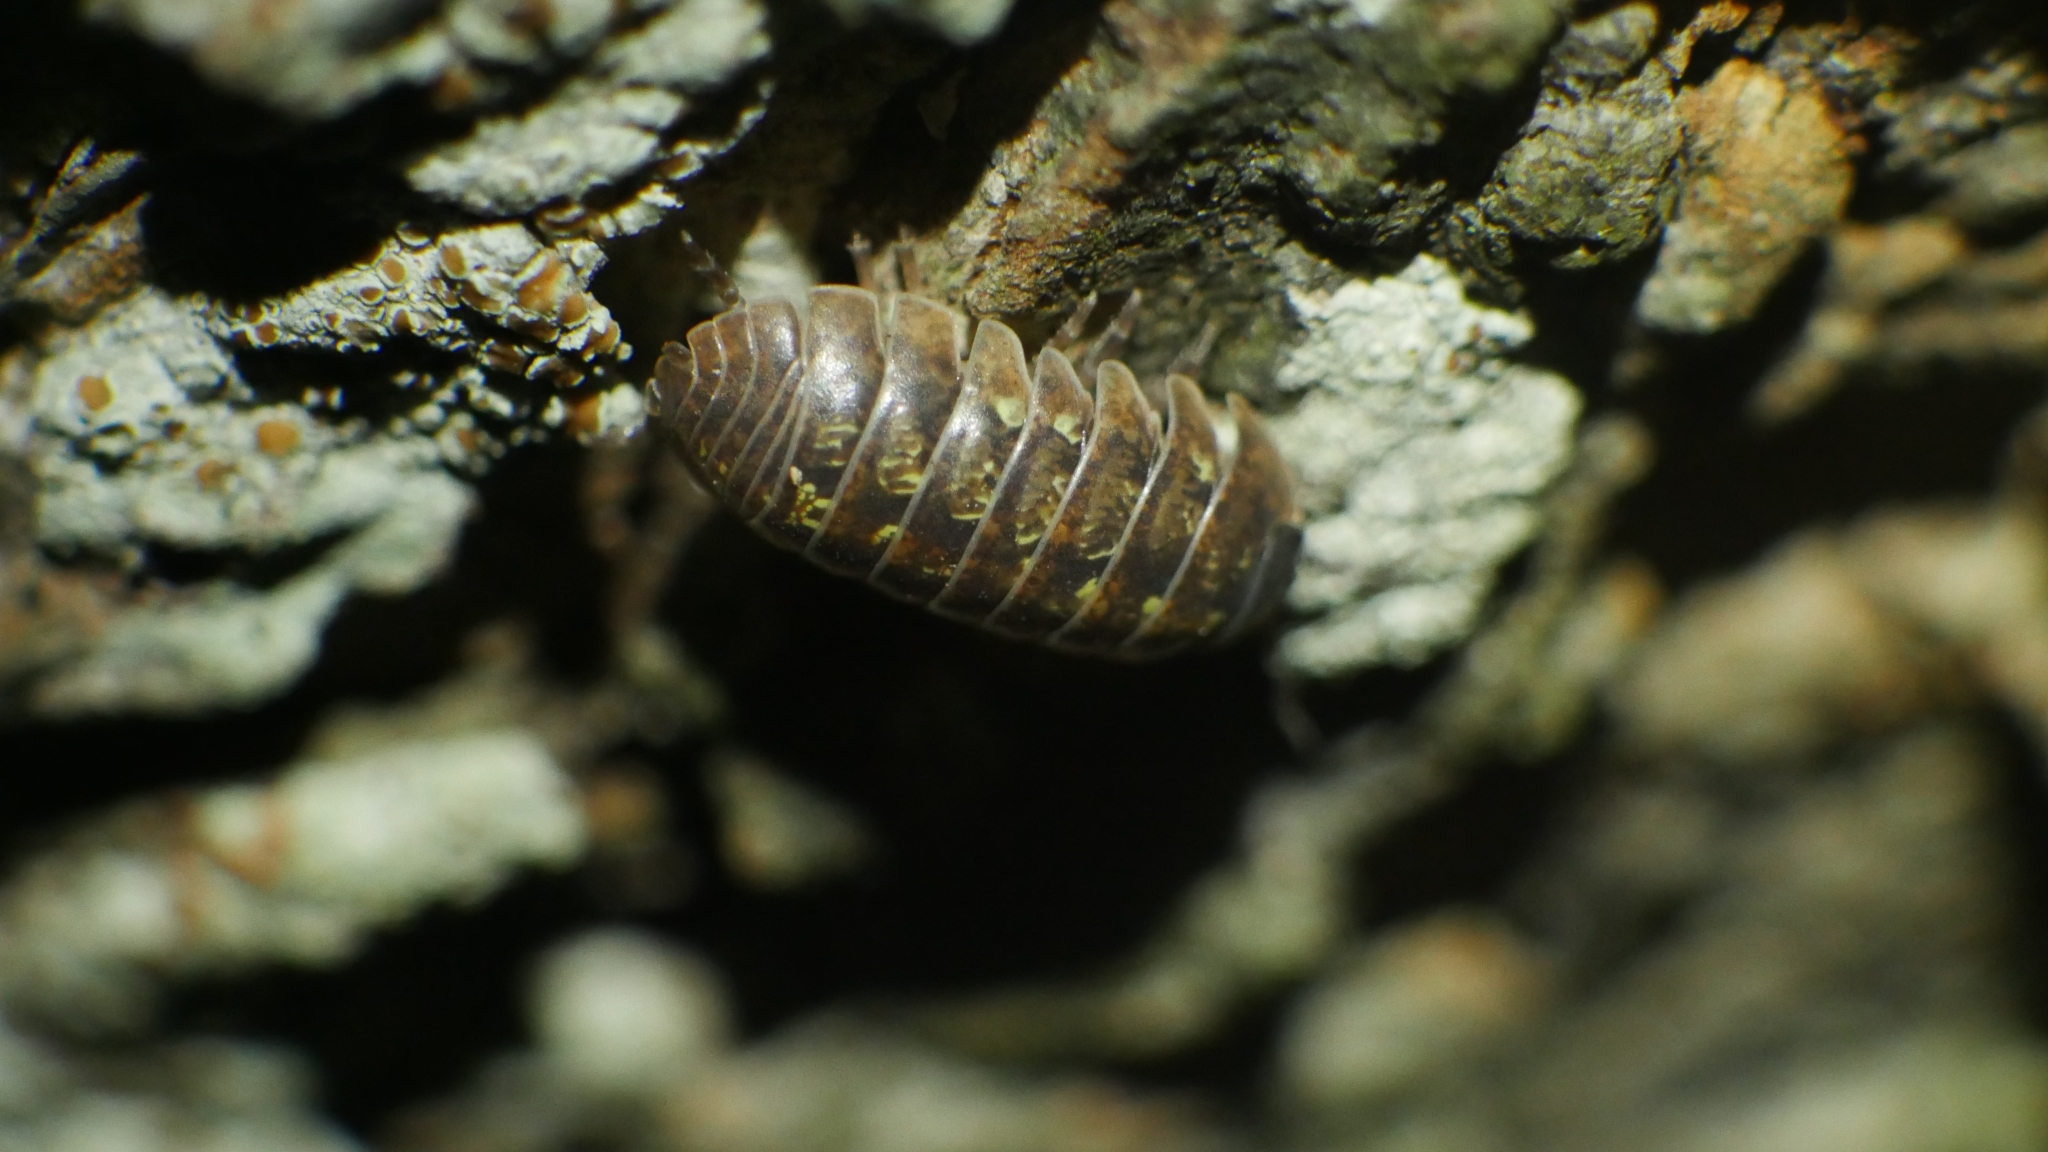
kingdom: Animalia
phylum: Arthropoda
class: Malacostraca
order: Isopoda
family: Armadillidiidae
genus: Armadillidium
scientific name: Armadillidium vulgare
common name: Common pill woodlouse
